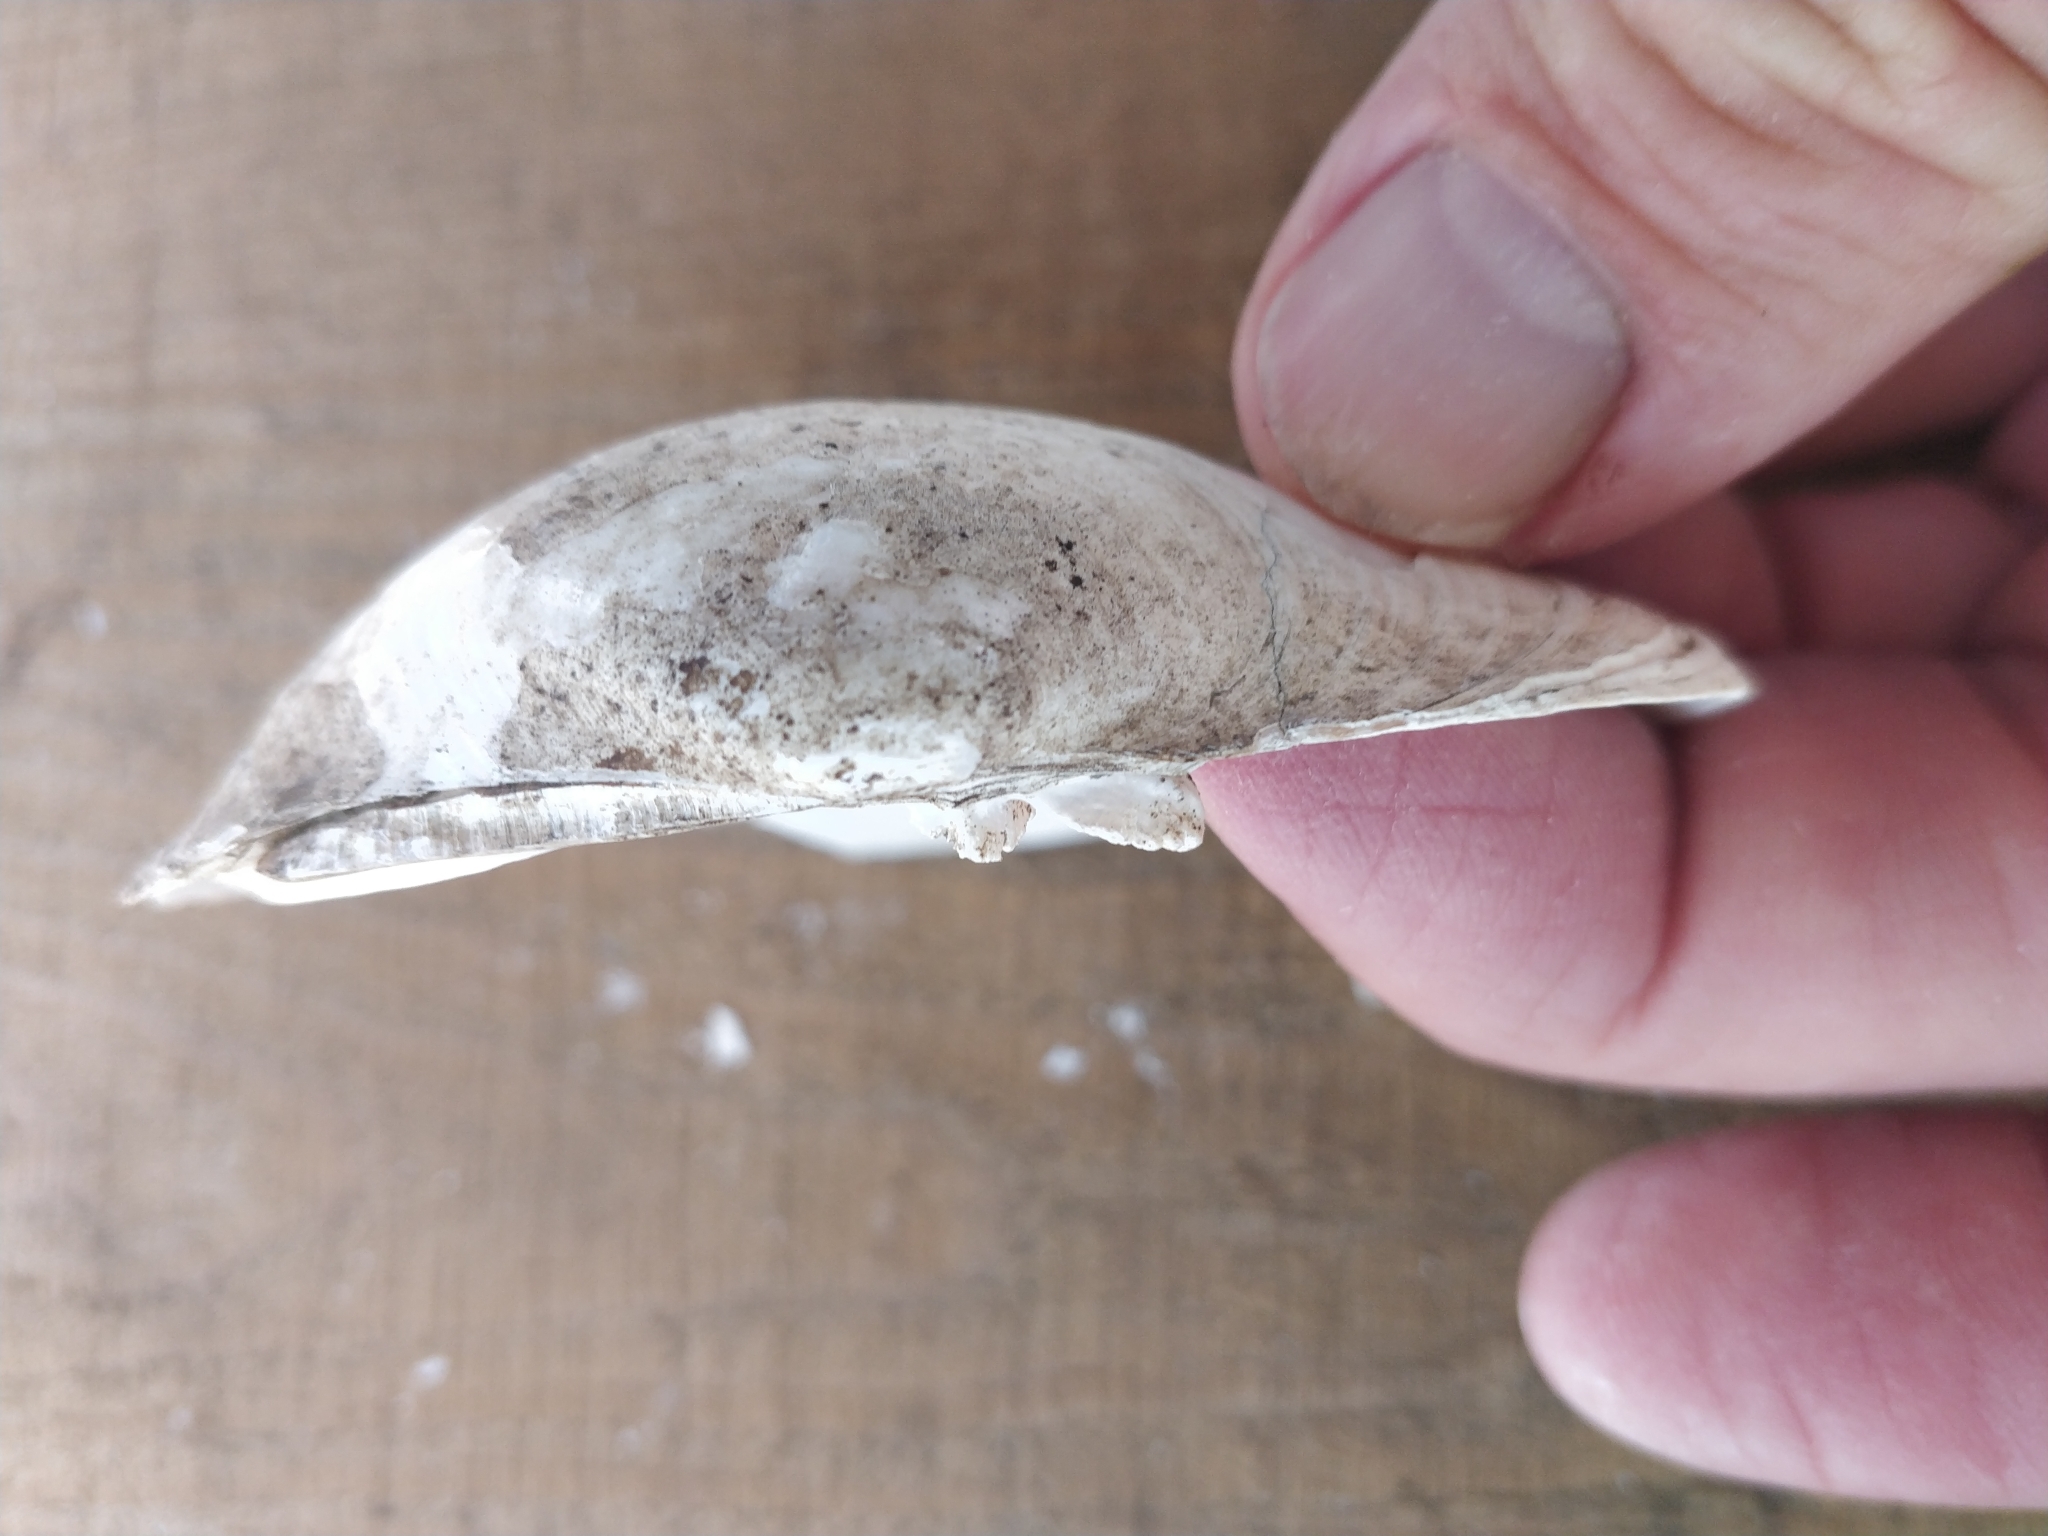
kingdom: Animalia
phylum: Mollusca
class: Bivalvia
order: Unionida
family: Unionidae
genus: Lampsilis
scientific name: Lampsilis cardium
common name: Plain pocketbook
